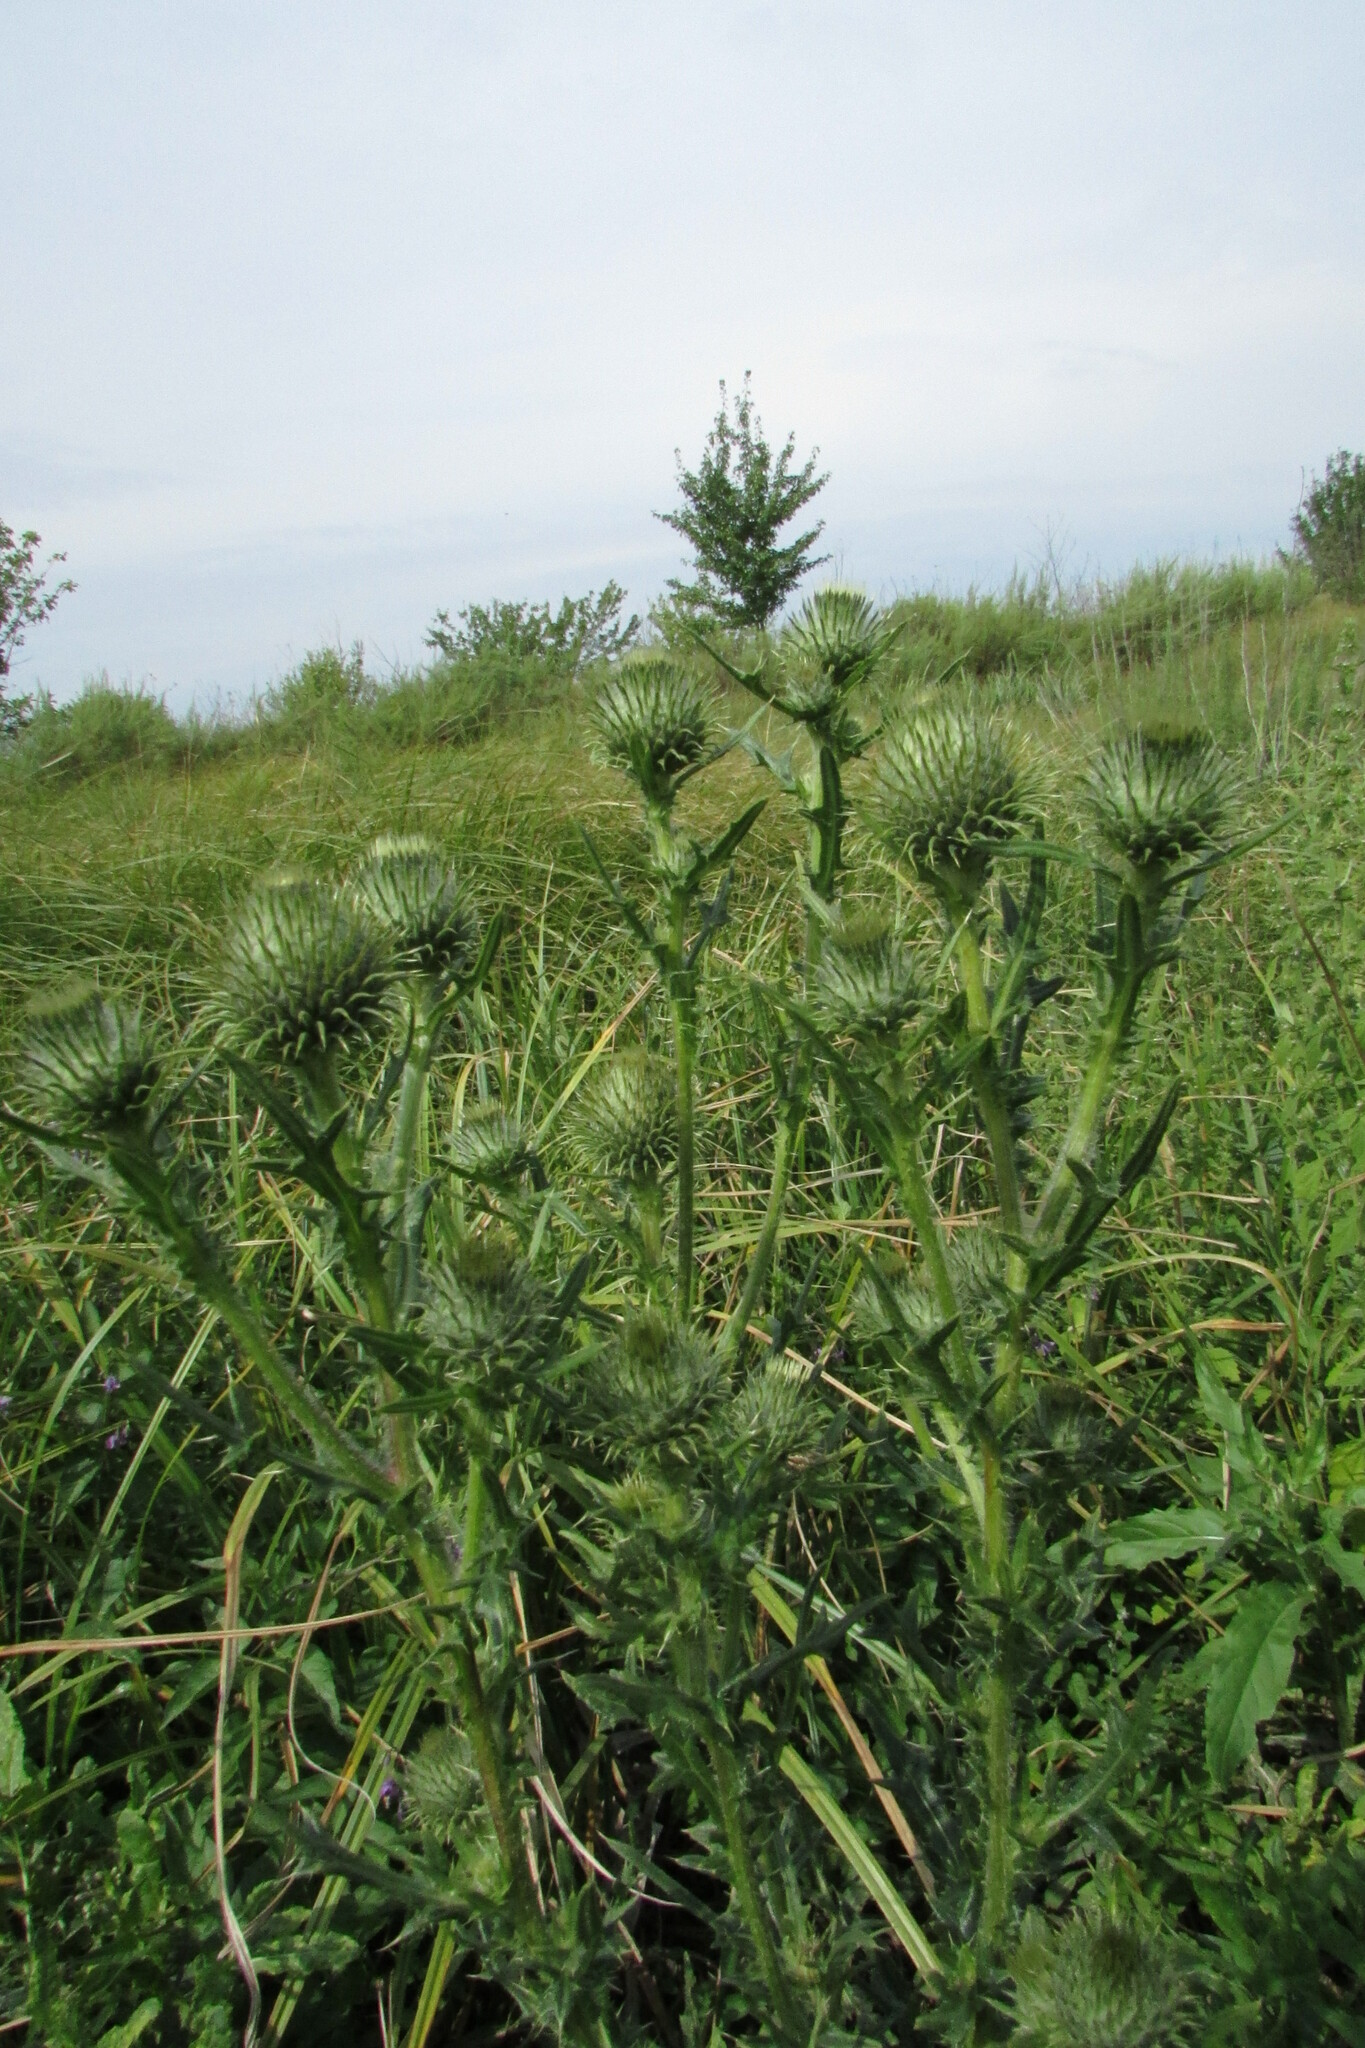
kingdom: Plantae
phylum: Tracheophyta
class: Magnoliopsida
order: Asterales
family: Asteraceae
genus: Cirsium
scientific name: Cirsium vulgare
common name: Bull thistle
